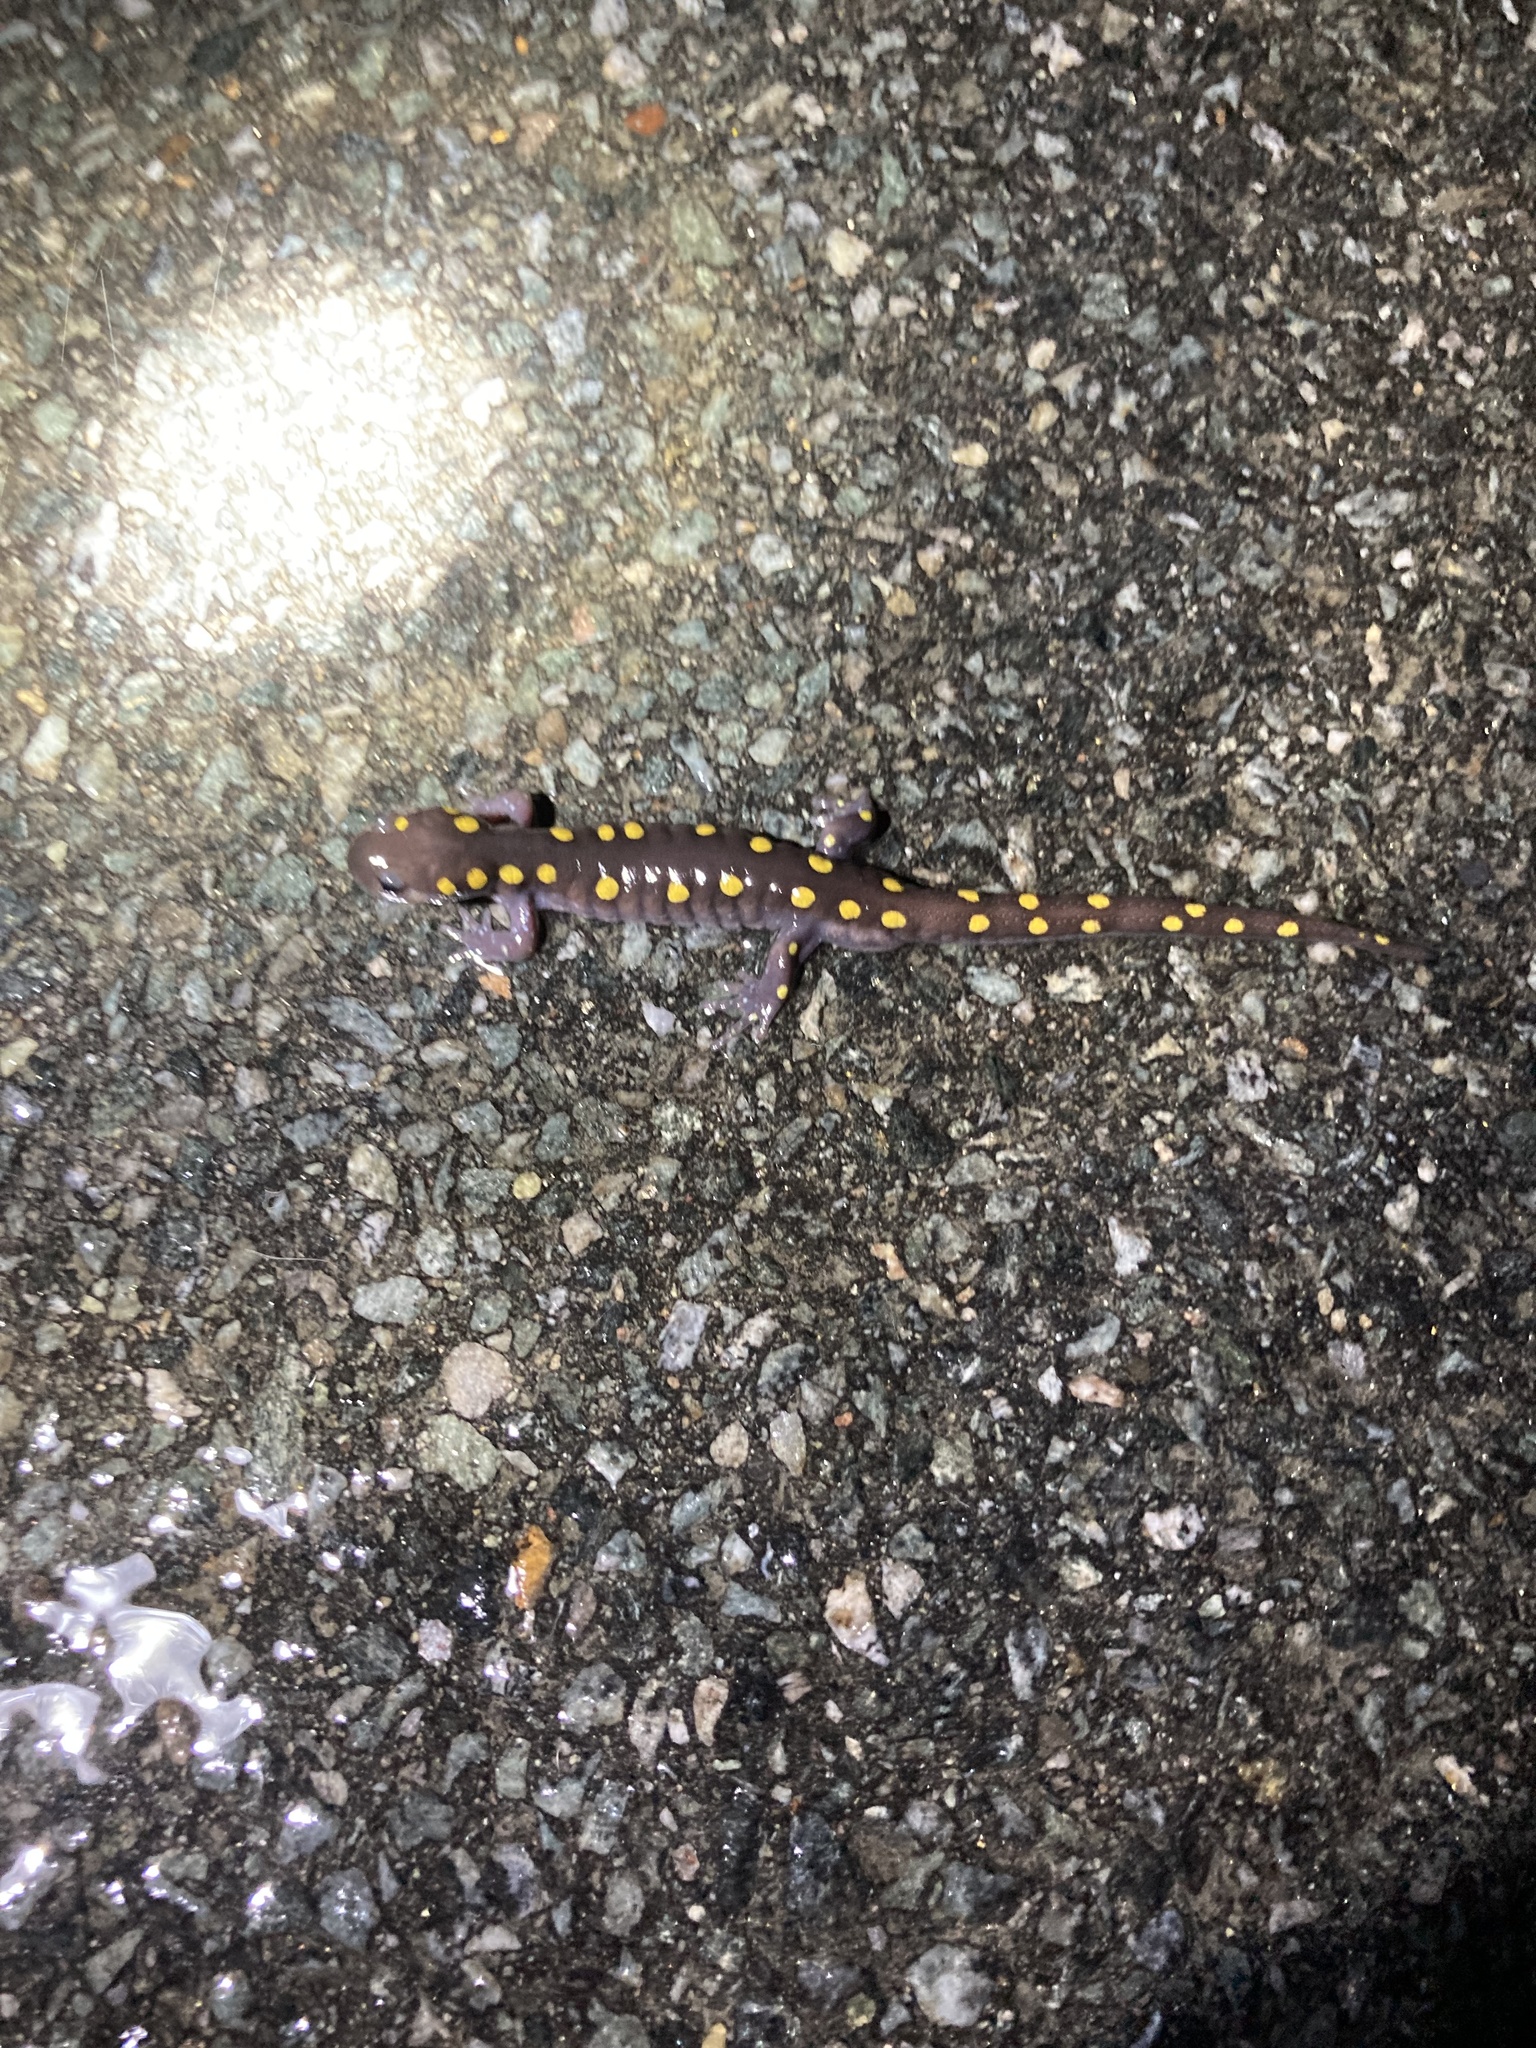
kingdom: Animalia
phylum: Chordata
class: Amphibia
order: Caudata
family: Ambystomatidae
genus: Ambystoma
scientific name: Ambystoma maculatum
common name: Spotted salamander
